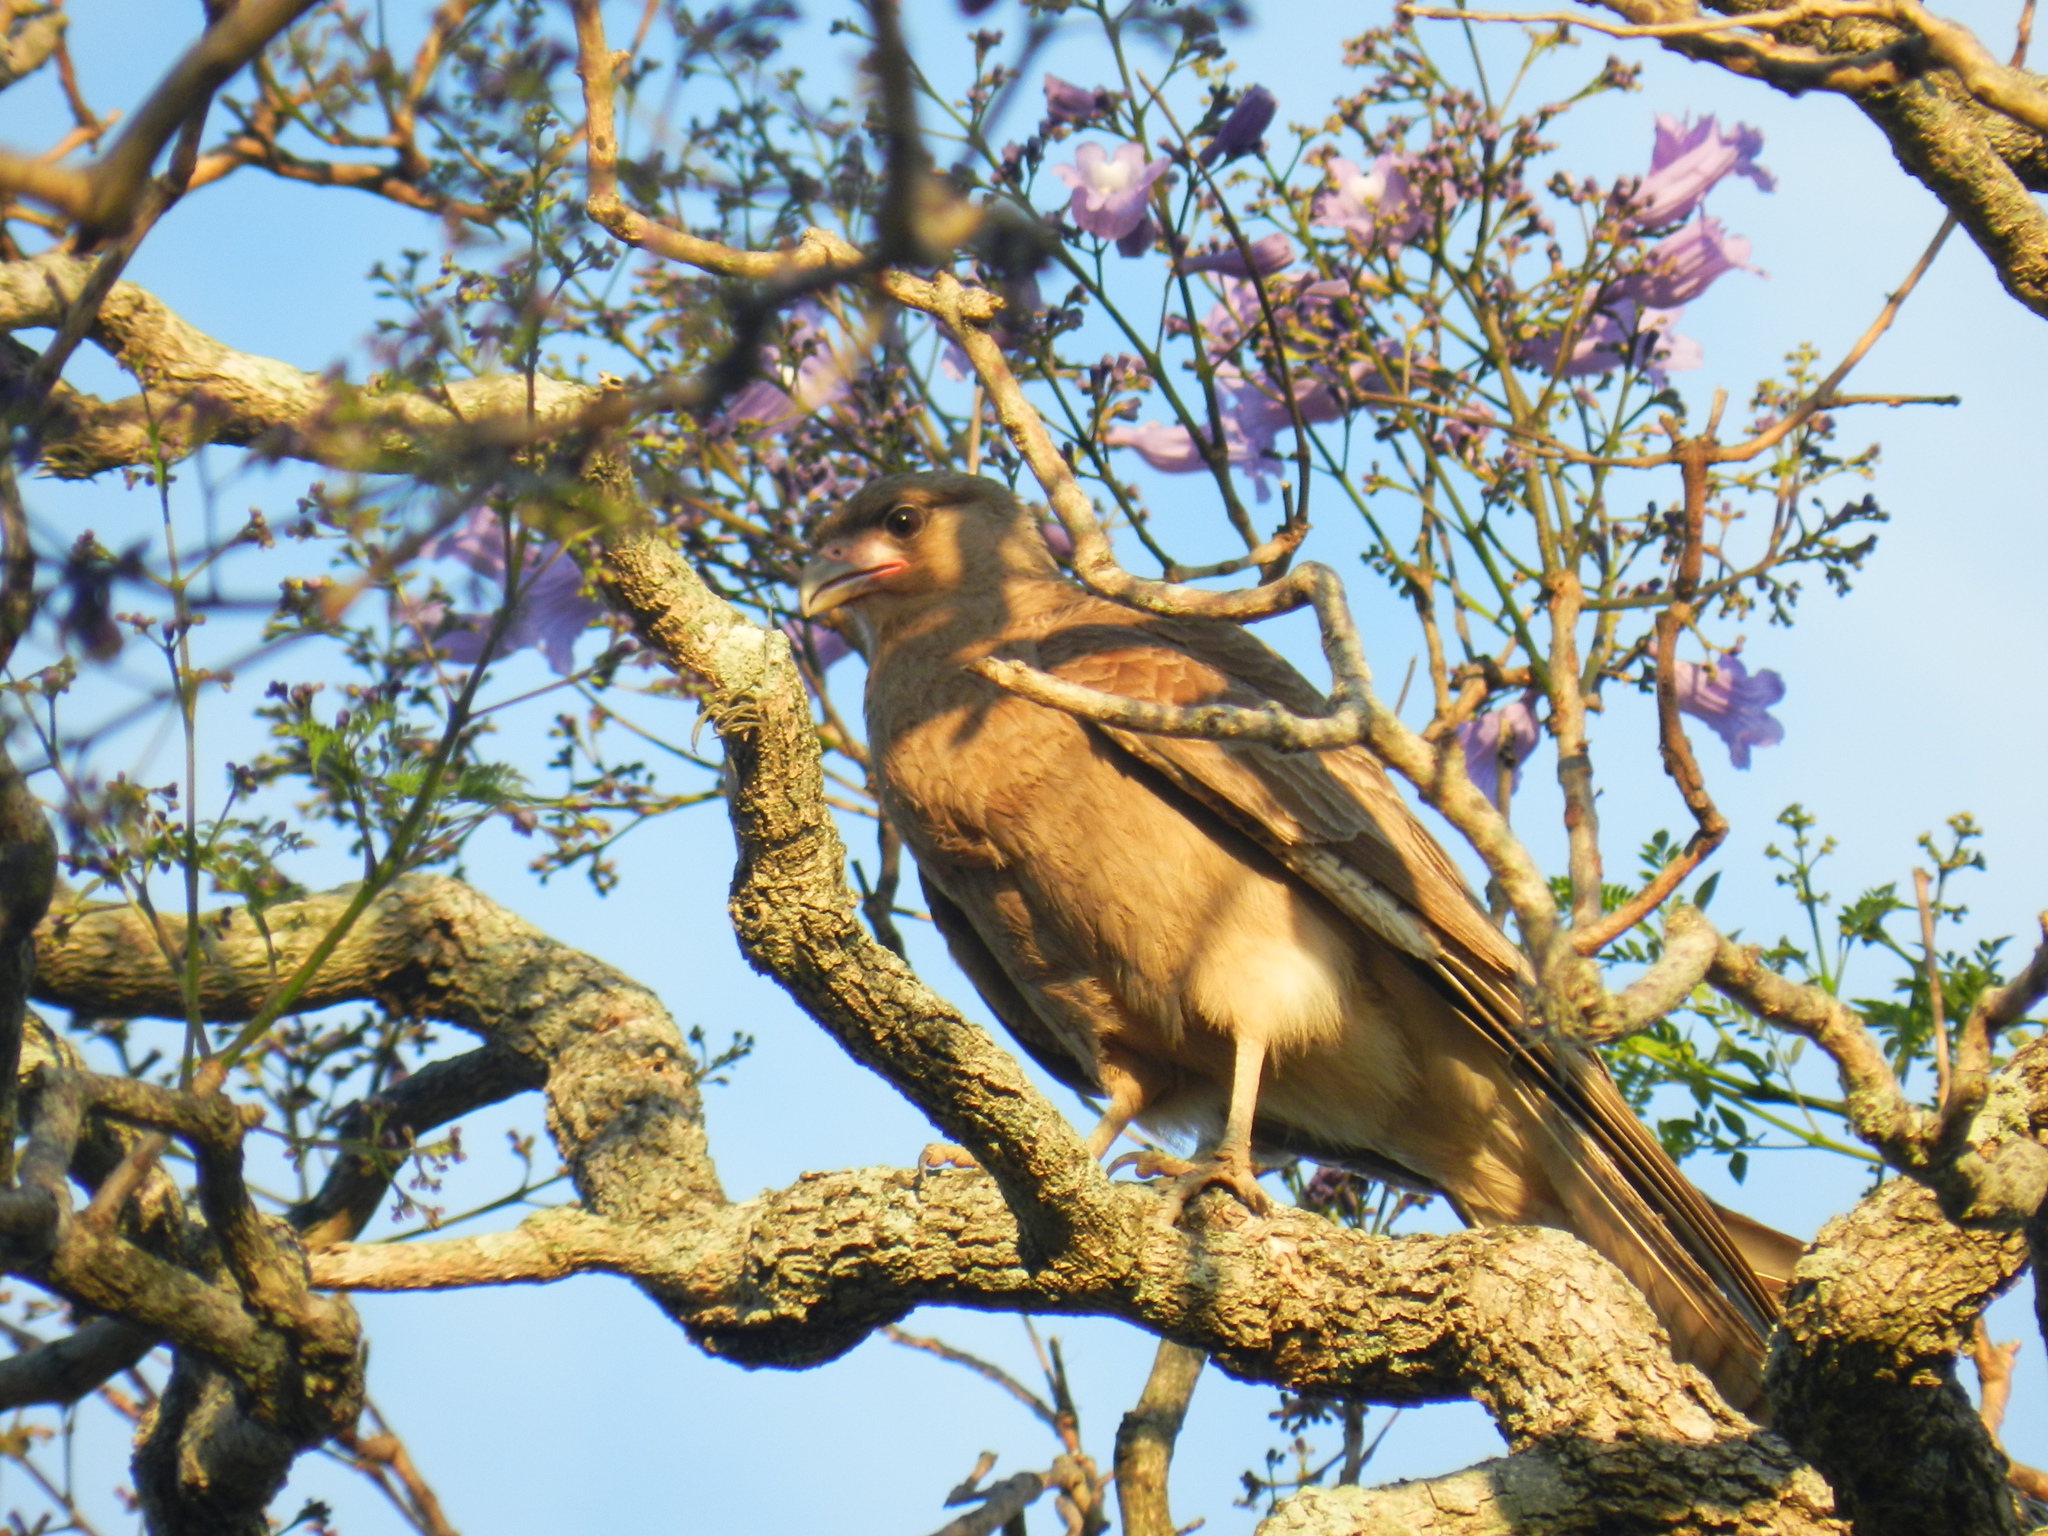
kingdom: Animalia
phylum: Chordata
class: Aves
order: Falconiformes
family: Falconidae
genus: Daptrius
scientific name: Daptrius
